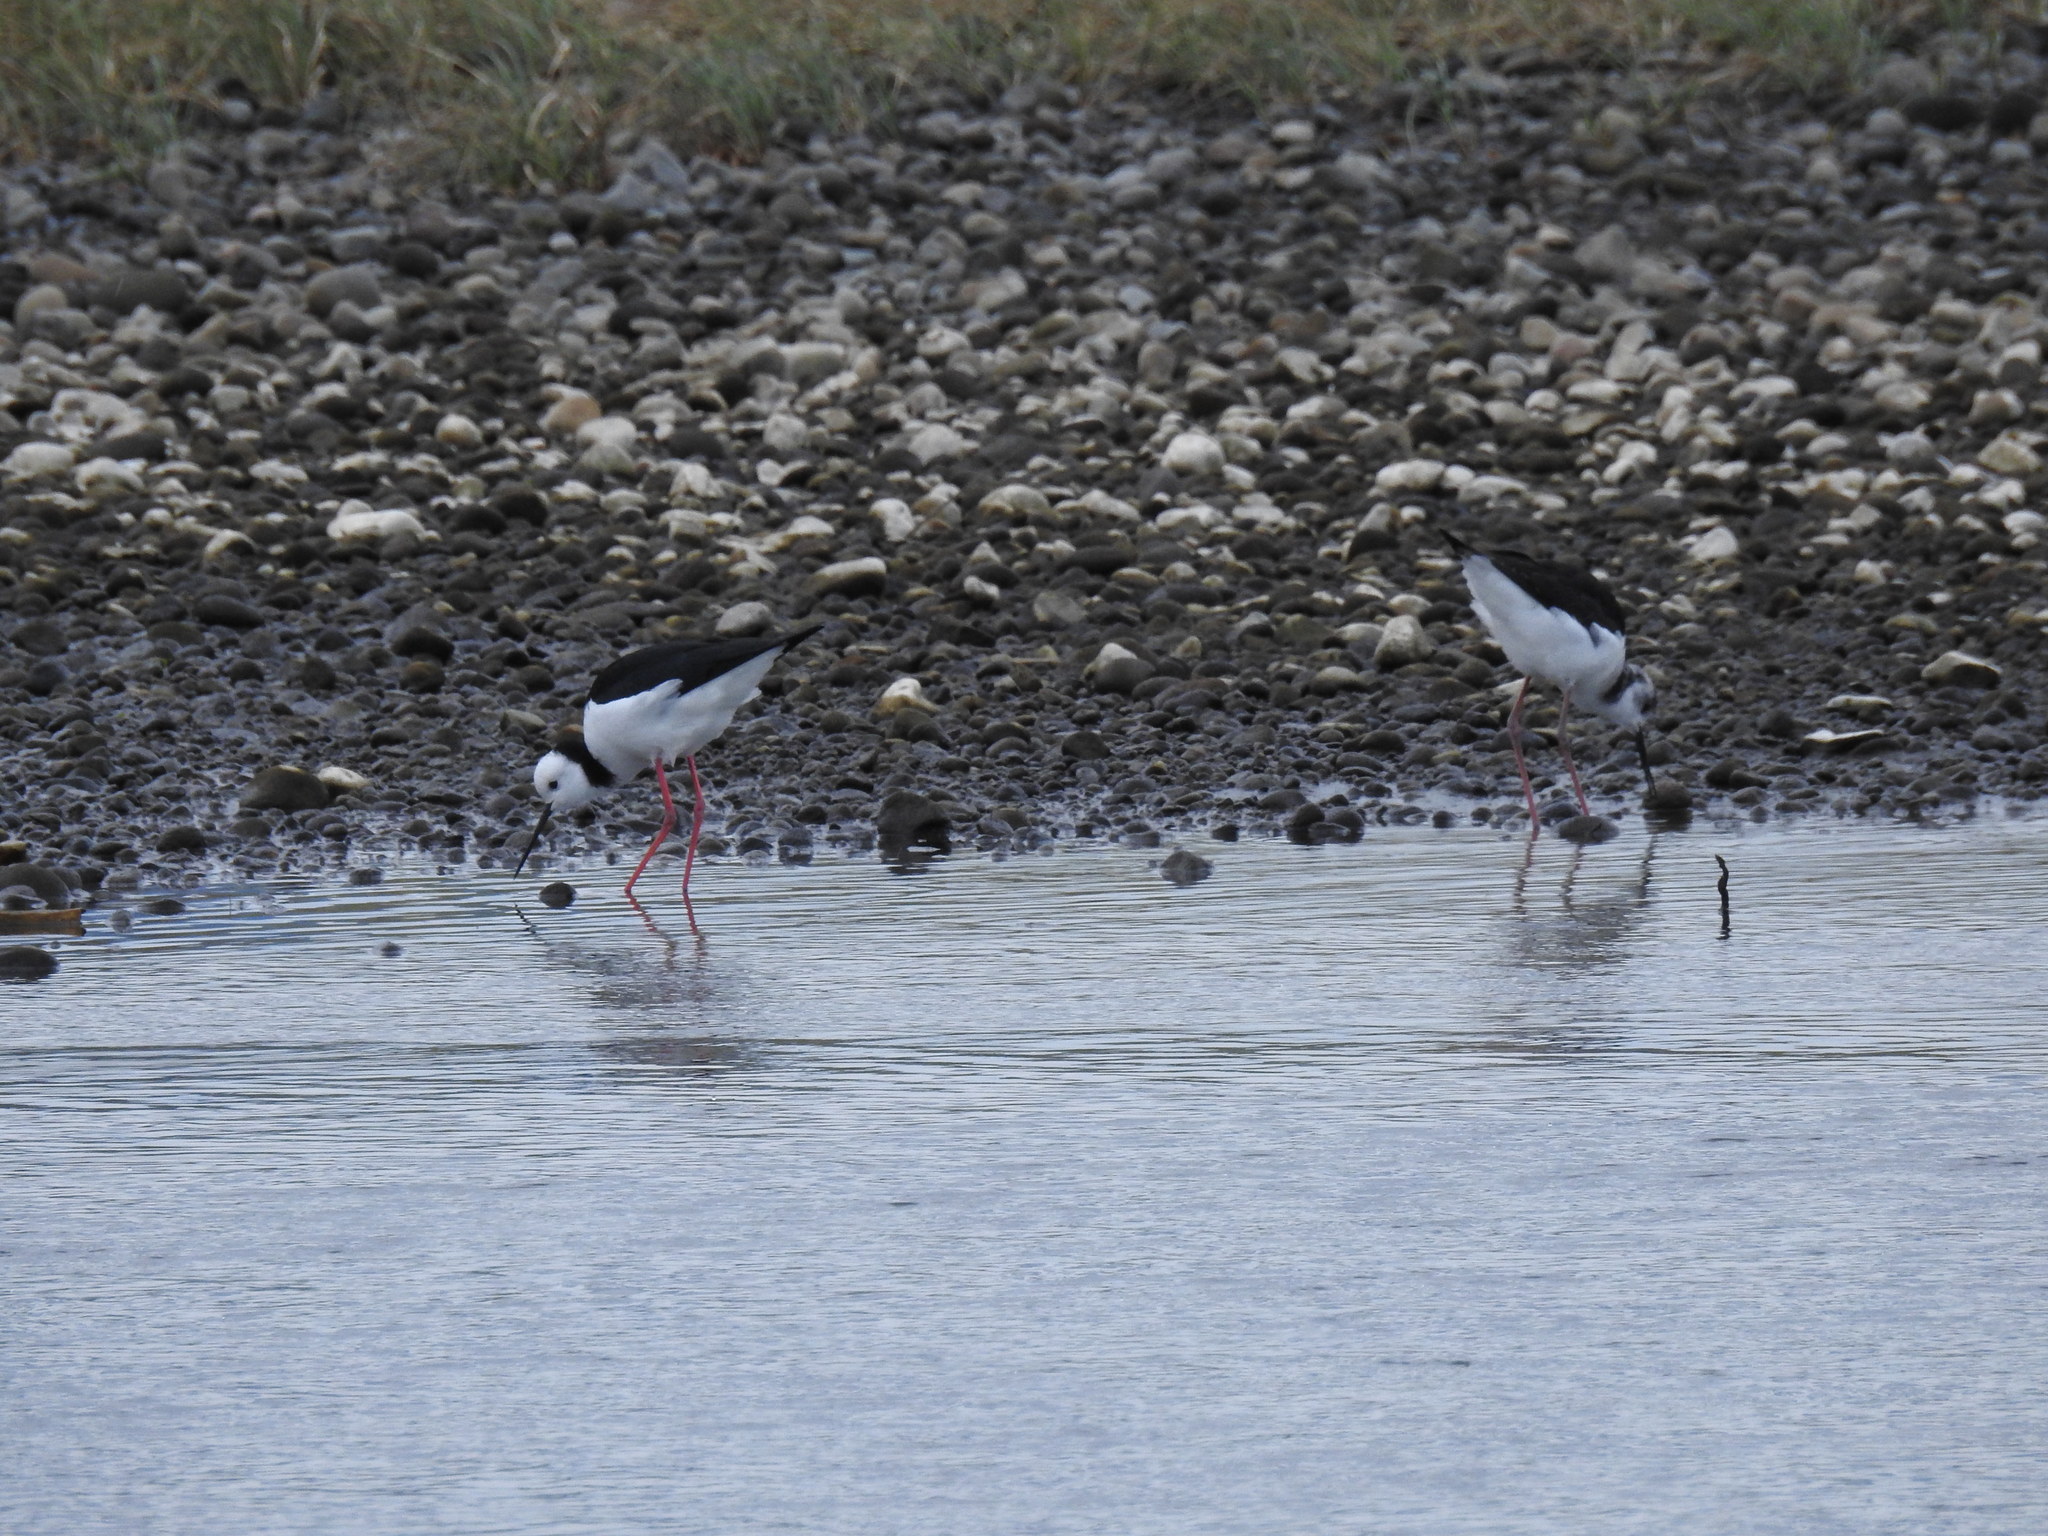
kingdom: Animalia
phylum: Chordata
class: Aves
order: Charadriiformes
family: Recurvirostridae
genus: Himantopus
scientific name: Himantopus leucocephalus
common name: White-headed stilt
